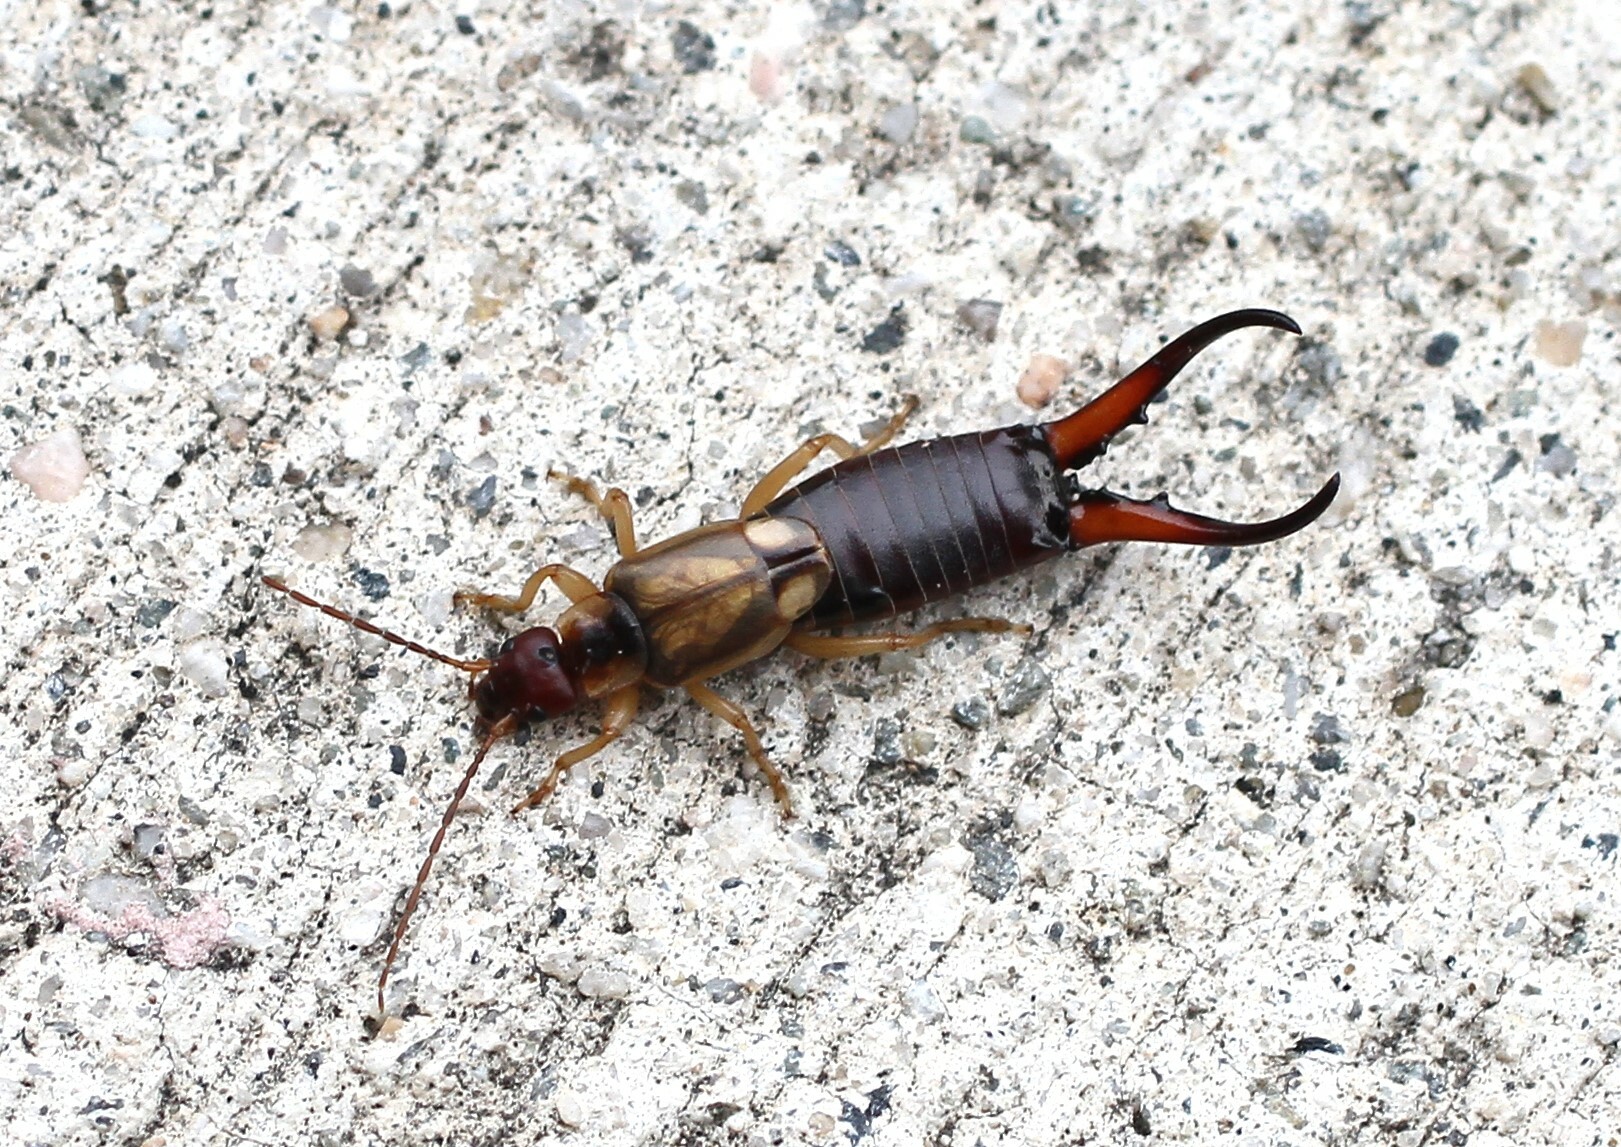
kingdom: Animalia
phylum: Arthropoda
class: Insecta
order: Dermaptera
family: Forficulidae
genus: Forficula
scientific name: Forficula dentata
